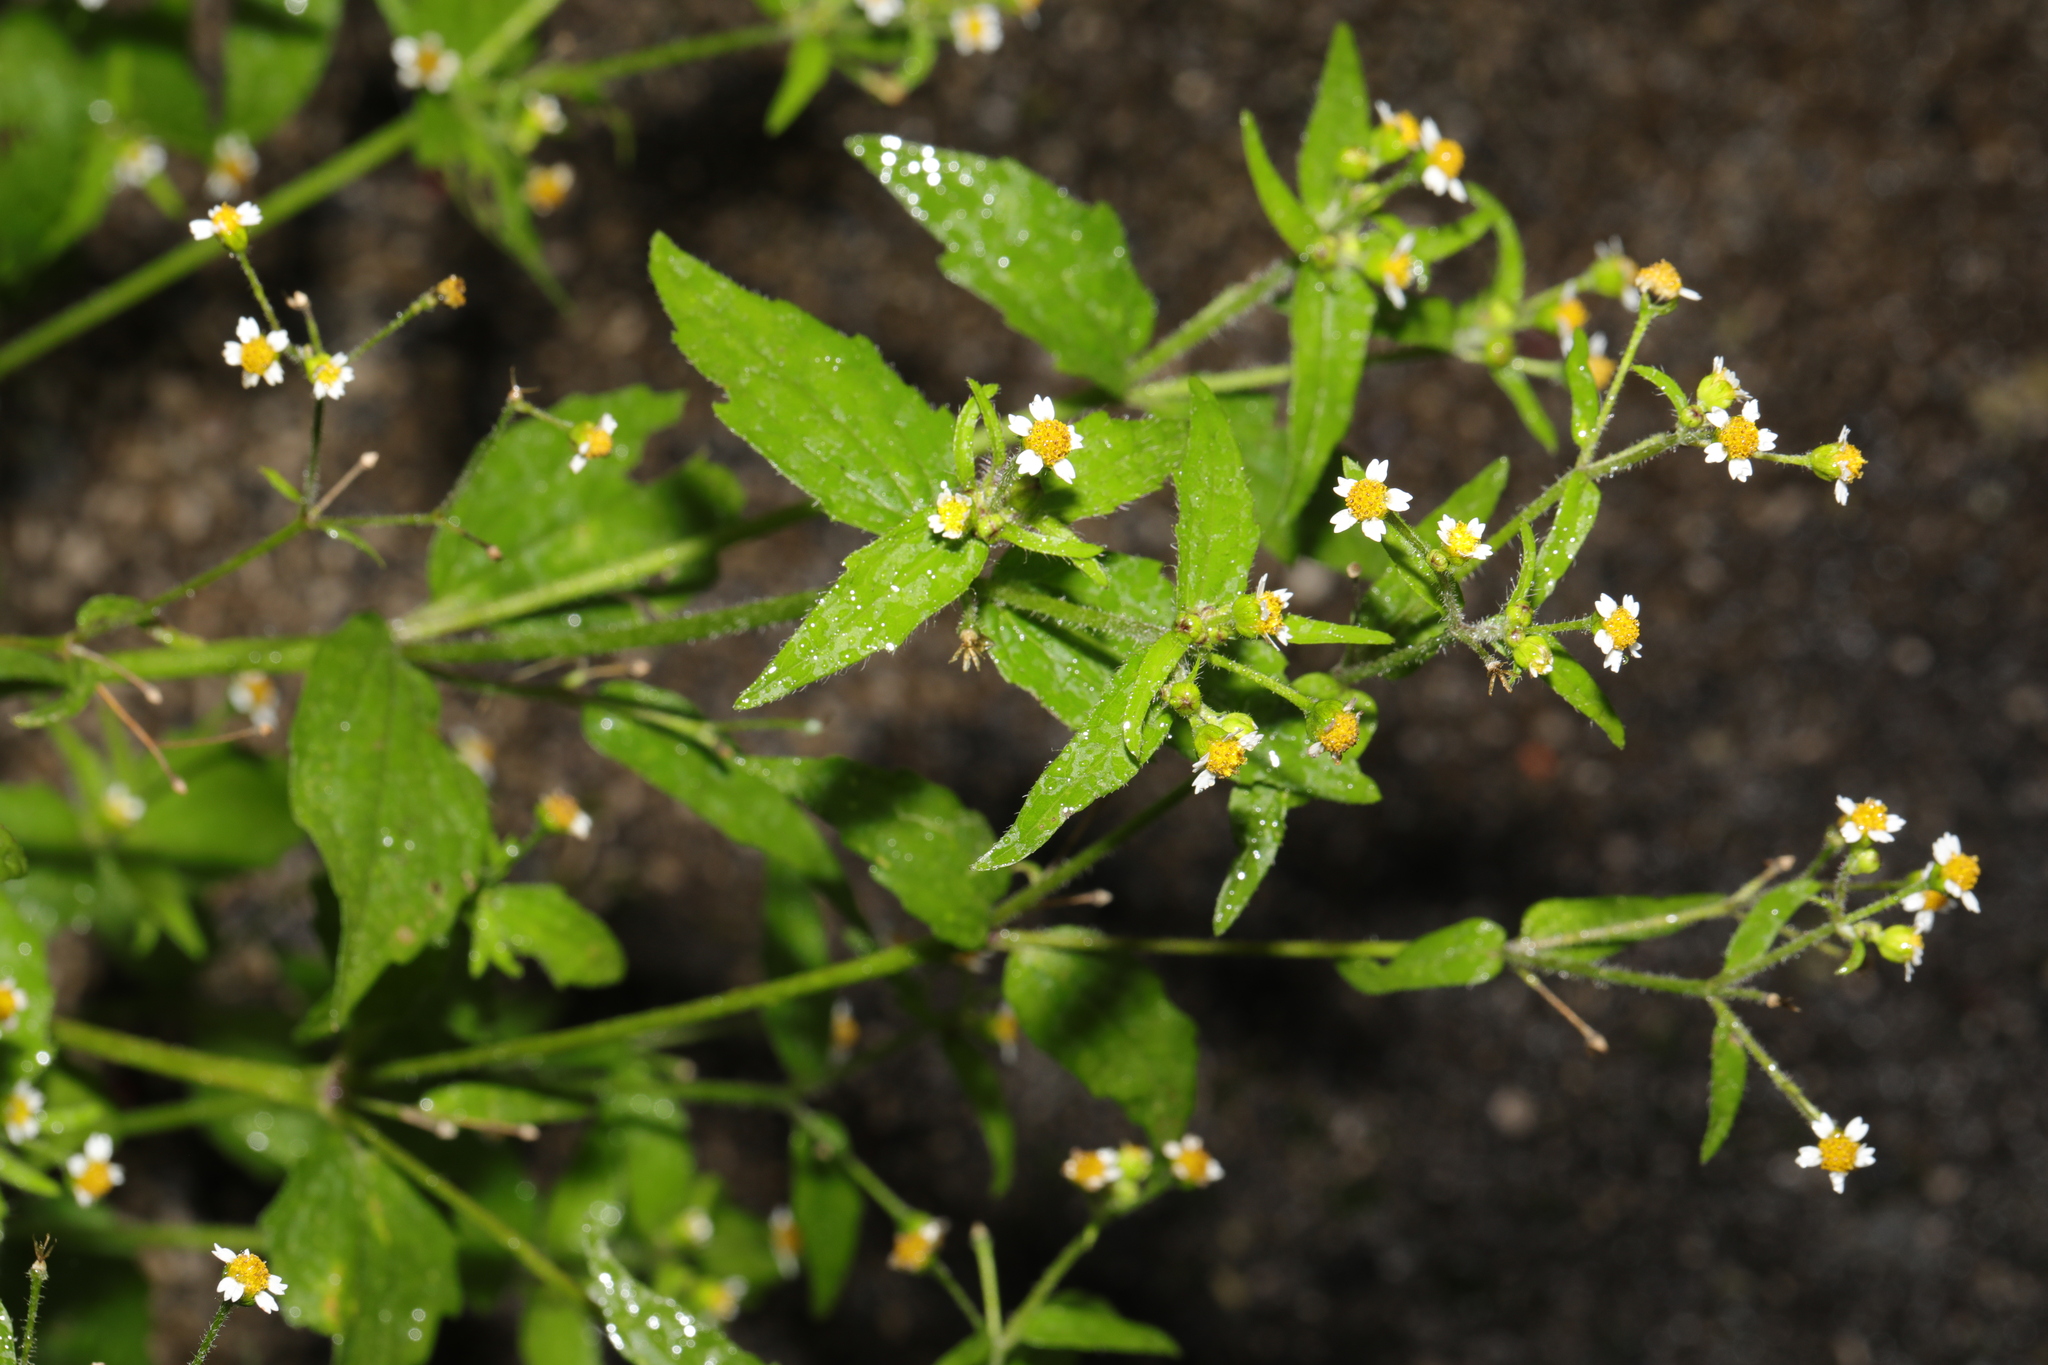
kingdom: Plantae
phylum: Tracheophyta
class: Magnoliopsida
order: Asterales
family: Asteraceae
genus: Galinsoga
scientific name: Galinsoga quadriradiata
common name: Shaggy soldier
